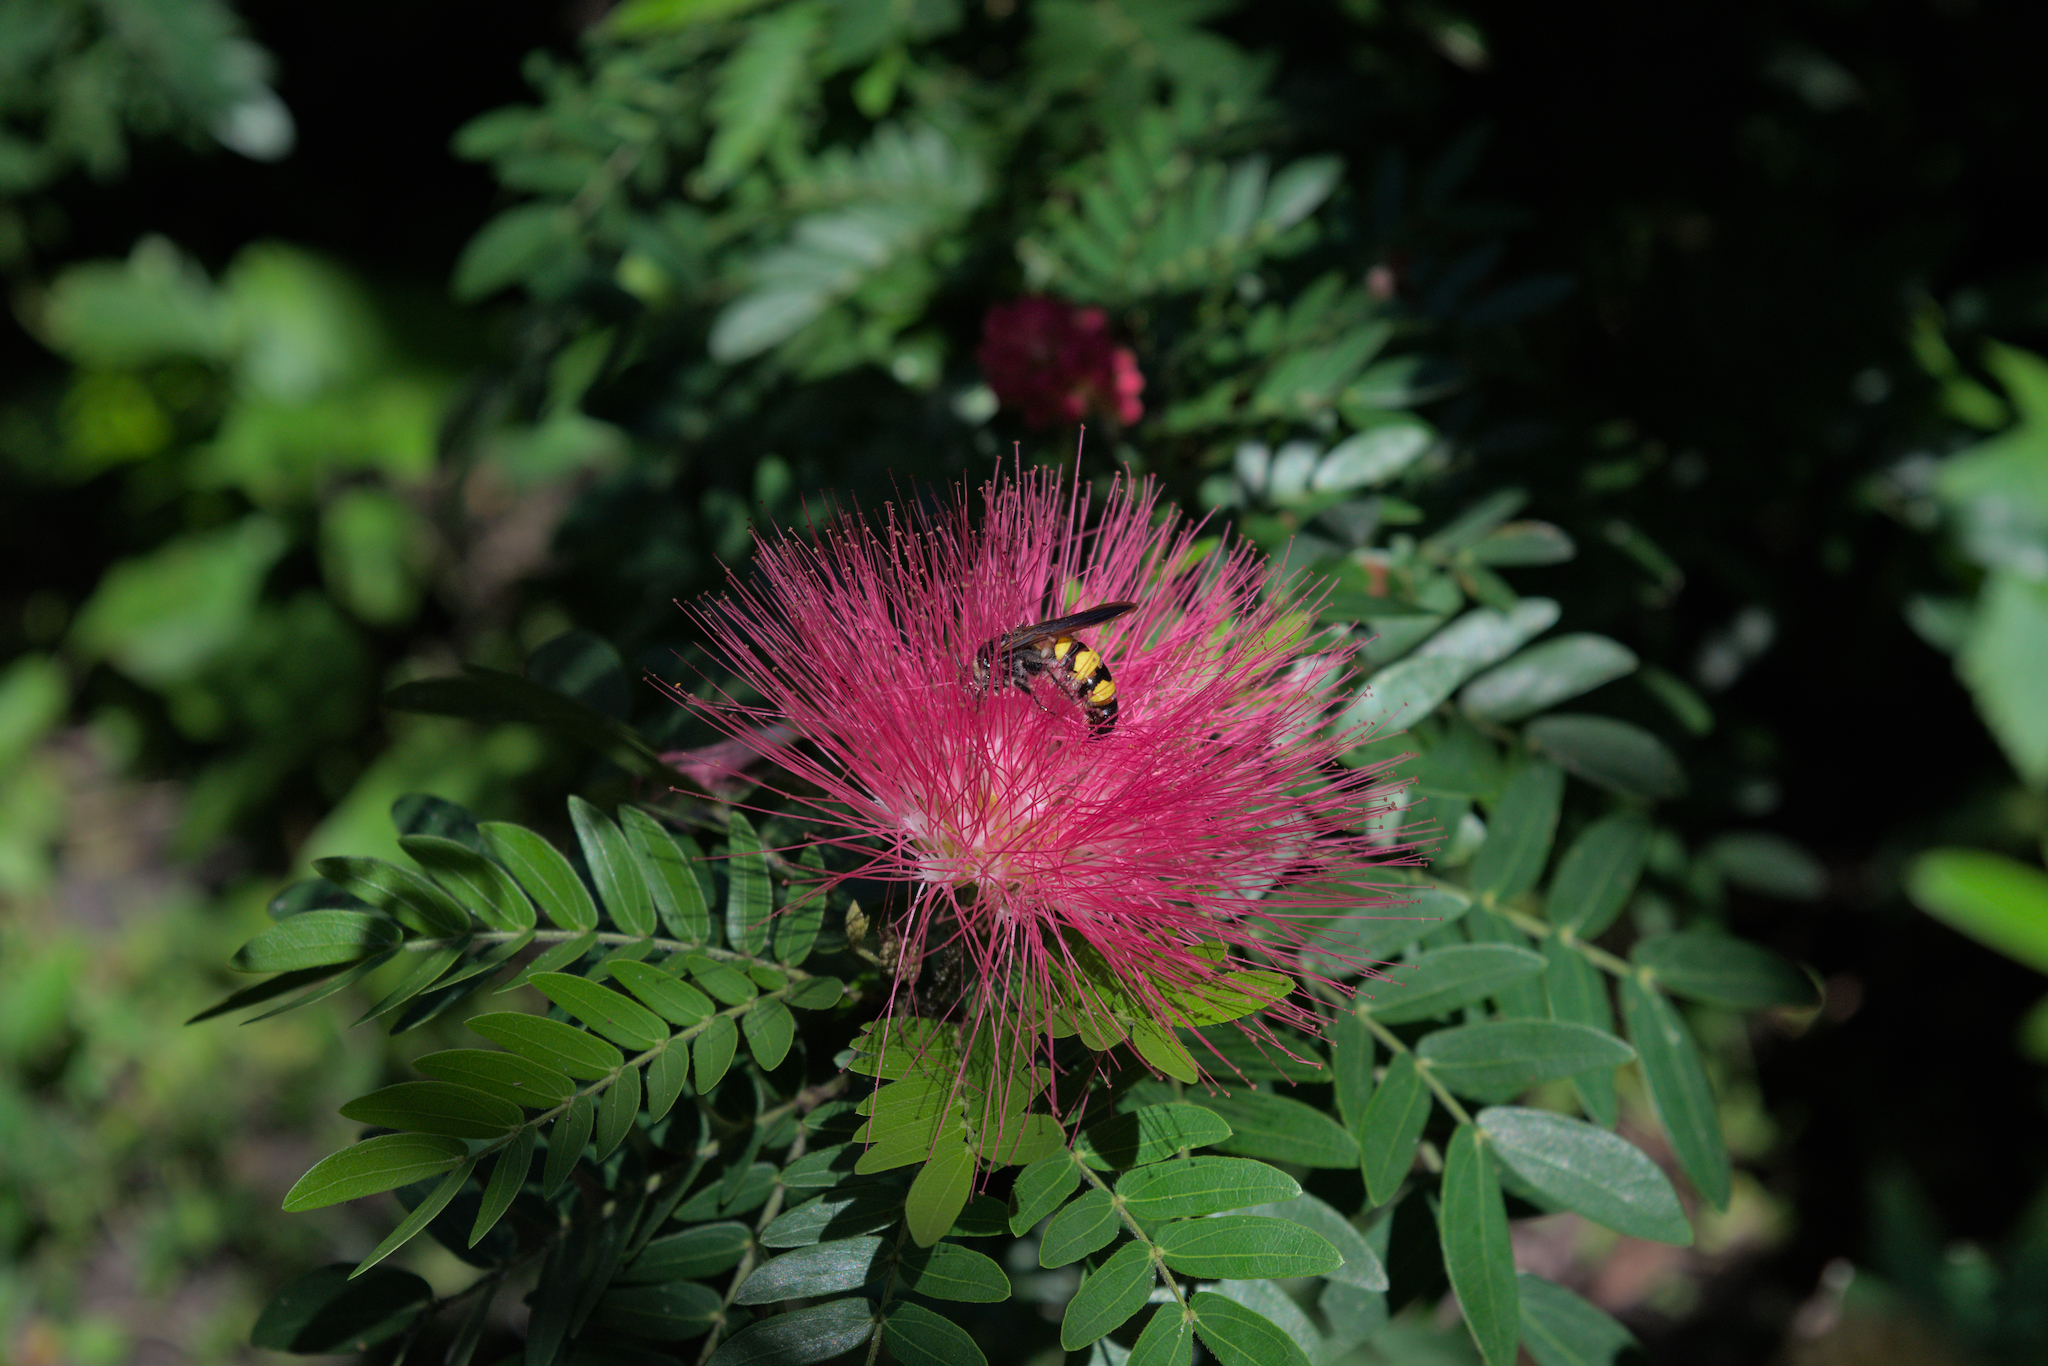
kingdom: Animalia
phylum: Arthropoda
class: Insecta
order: Hymenoptera
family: Scoliidae
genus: Dielis
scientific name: Dielis
